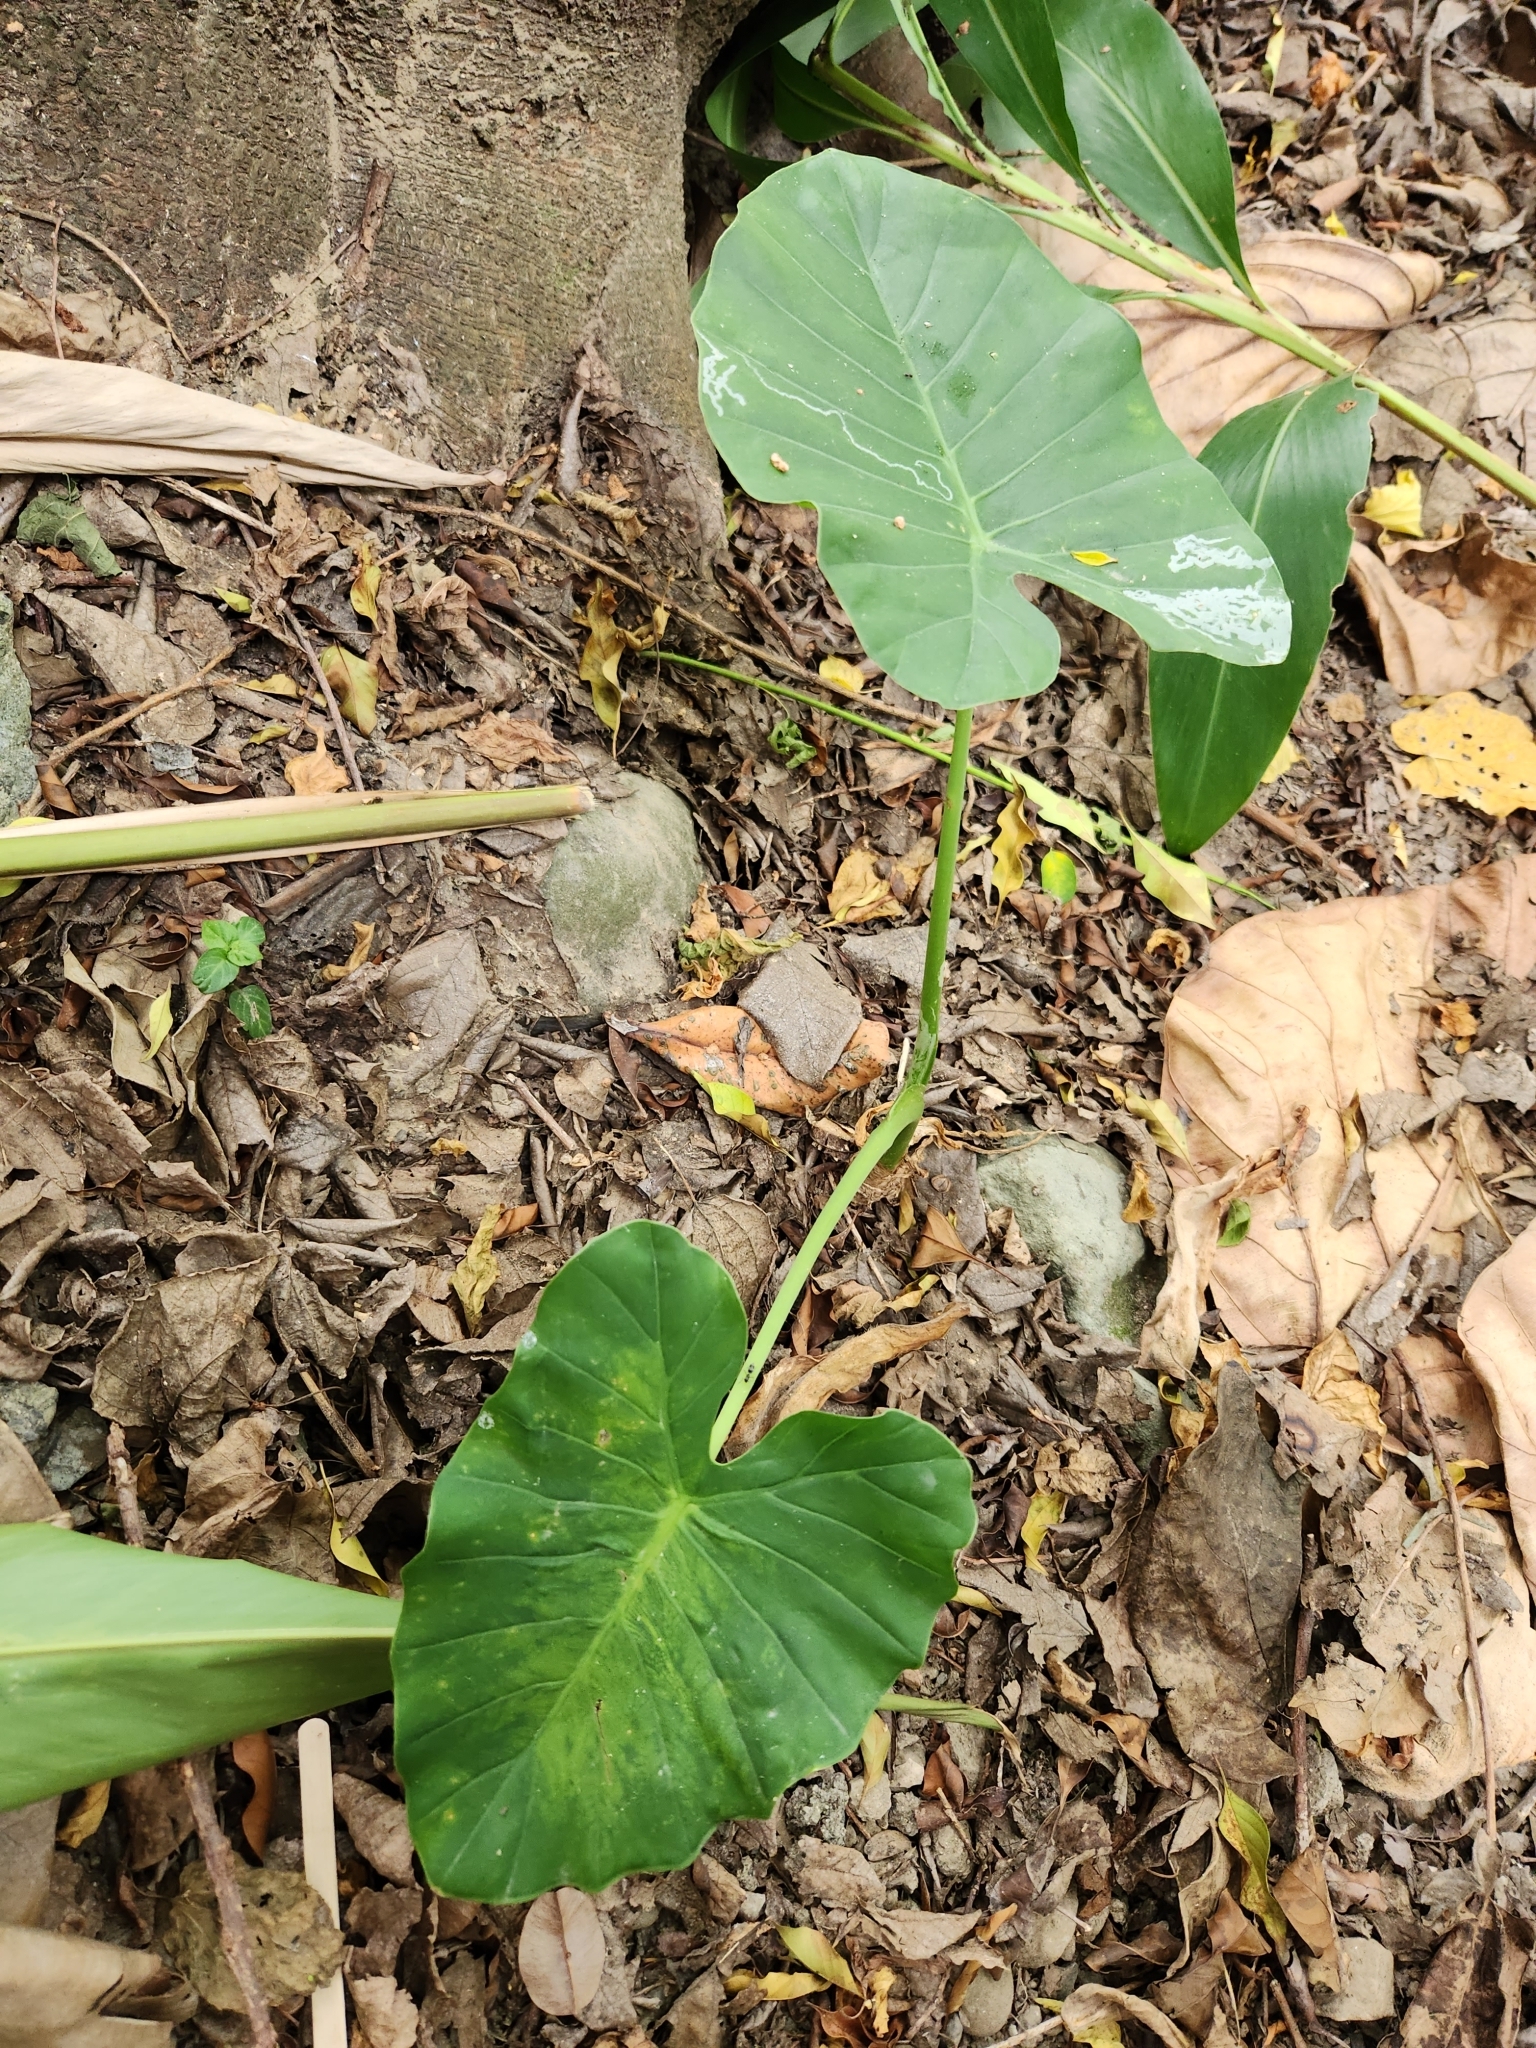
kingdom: Plantae
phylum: Tracheophyta
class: Liliopsida
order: Alismatales
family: Araceae
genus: Alocasia
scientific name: Alocasia odora
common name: Asian taro
